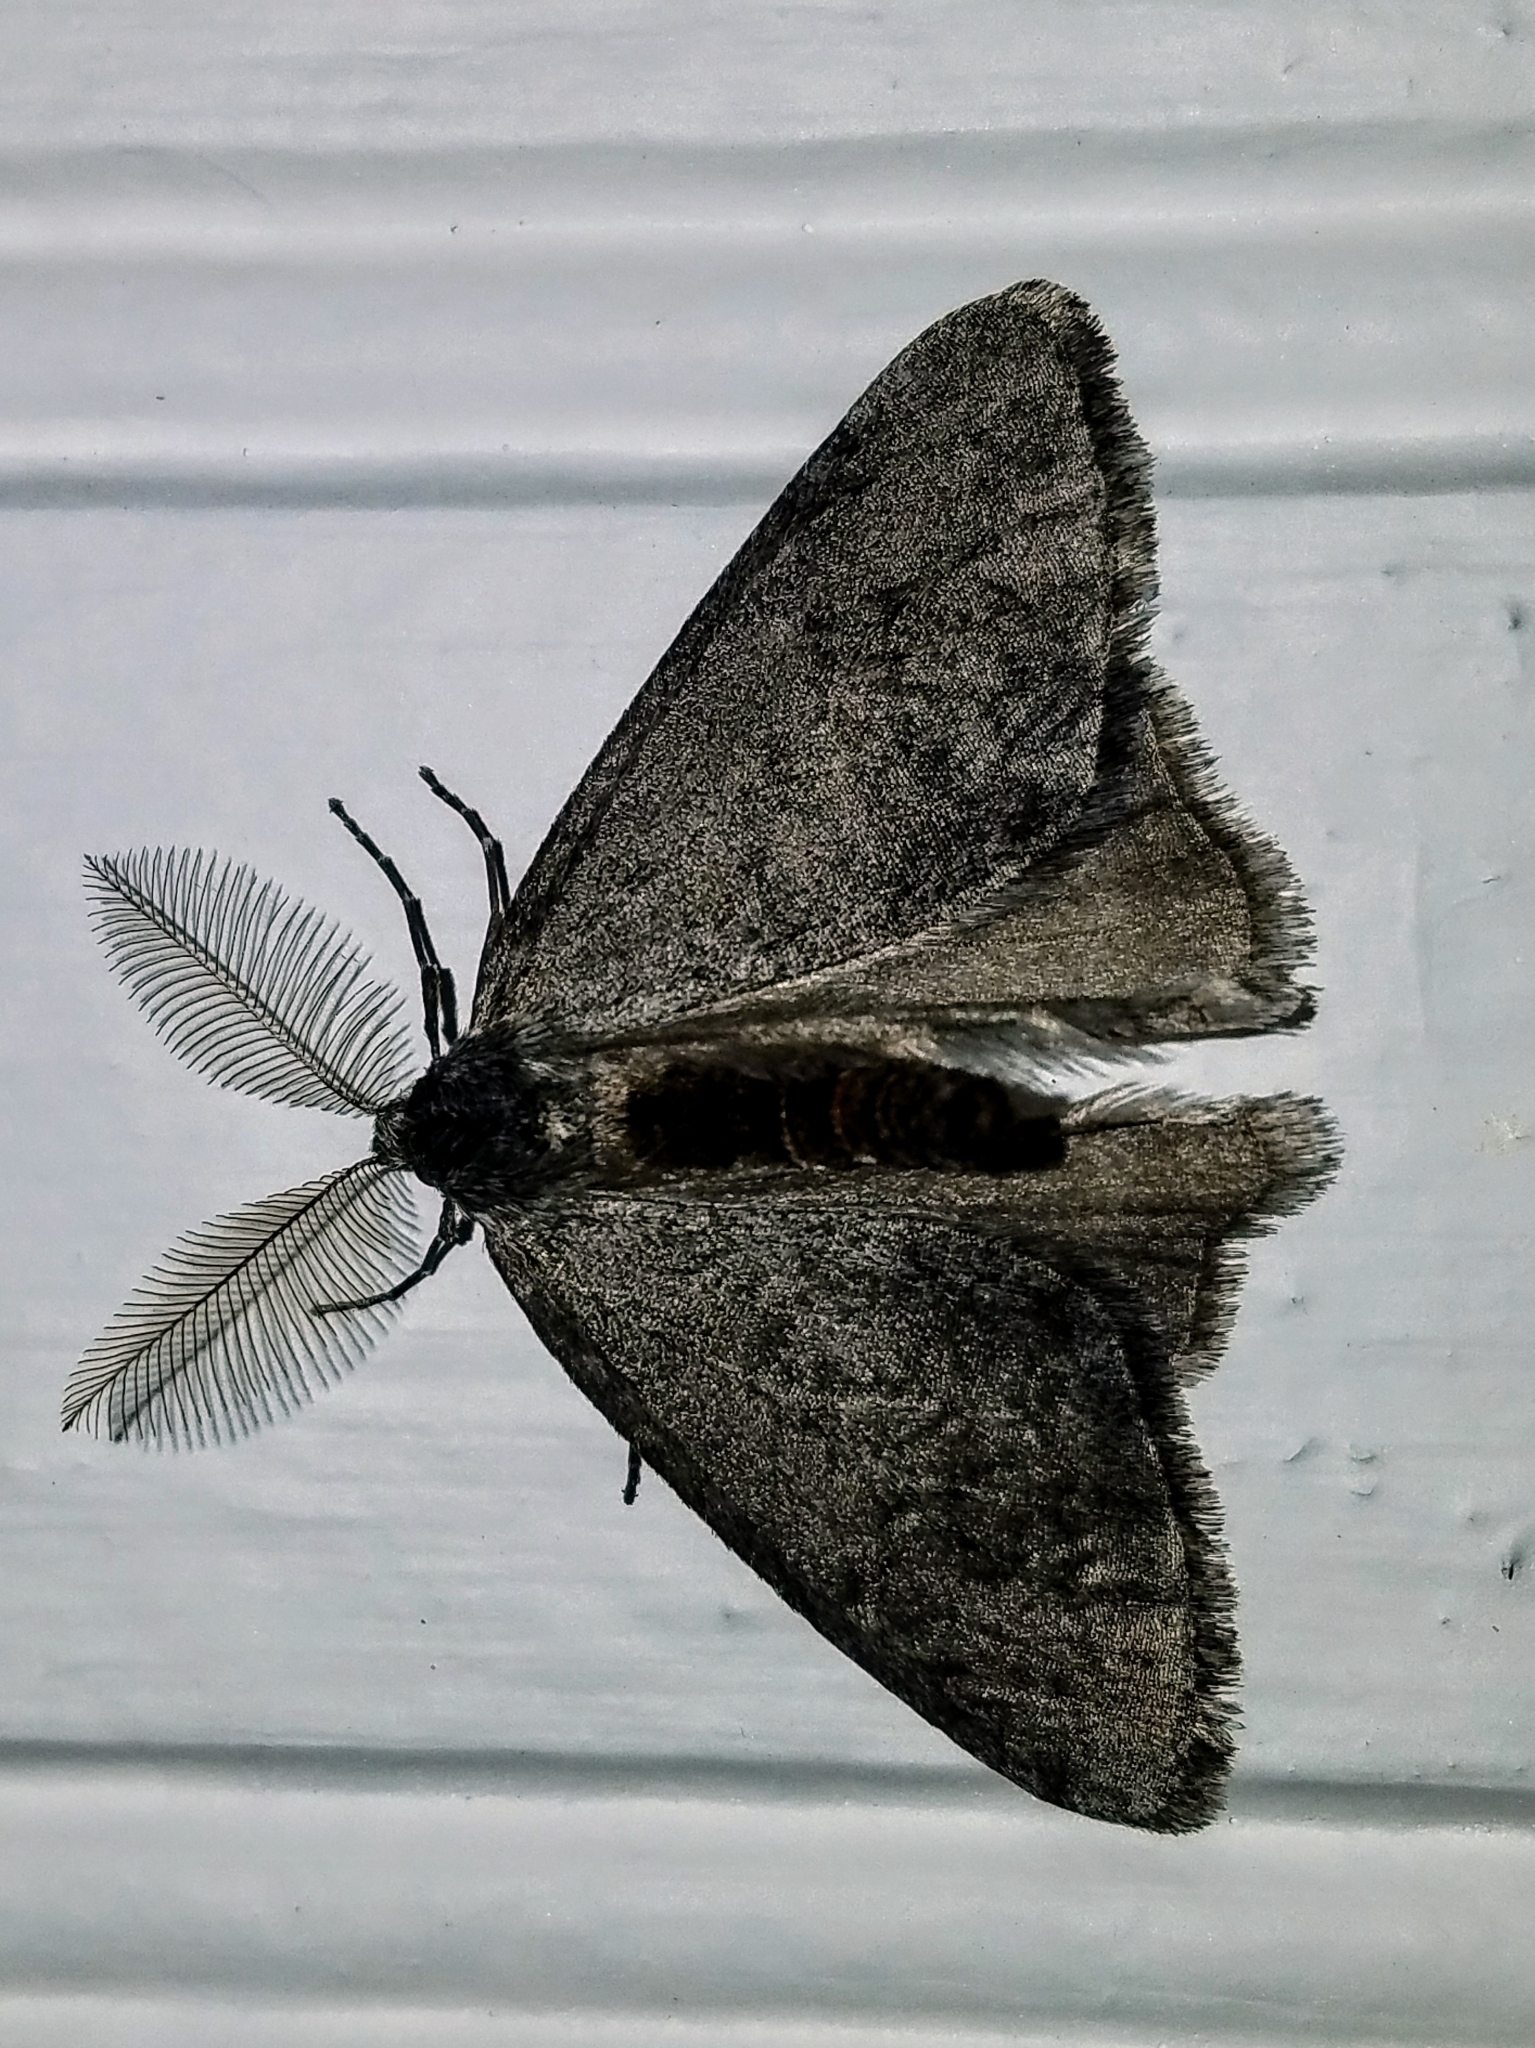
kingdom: Animalia
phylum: Arthropoda
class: Insecta
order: Lepidoptera
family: Geometridae
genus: Phigalia
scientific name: Phigalia plumogeraria
